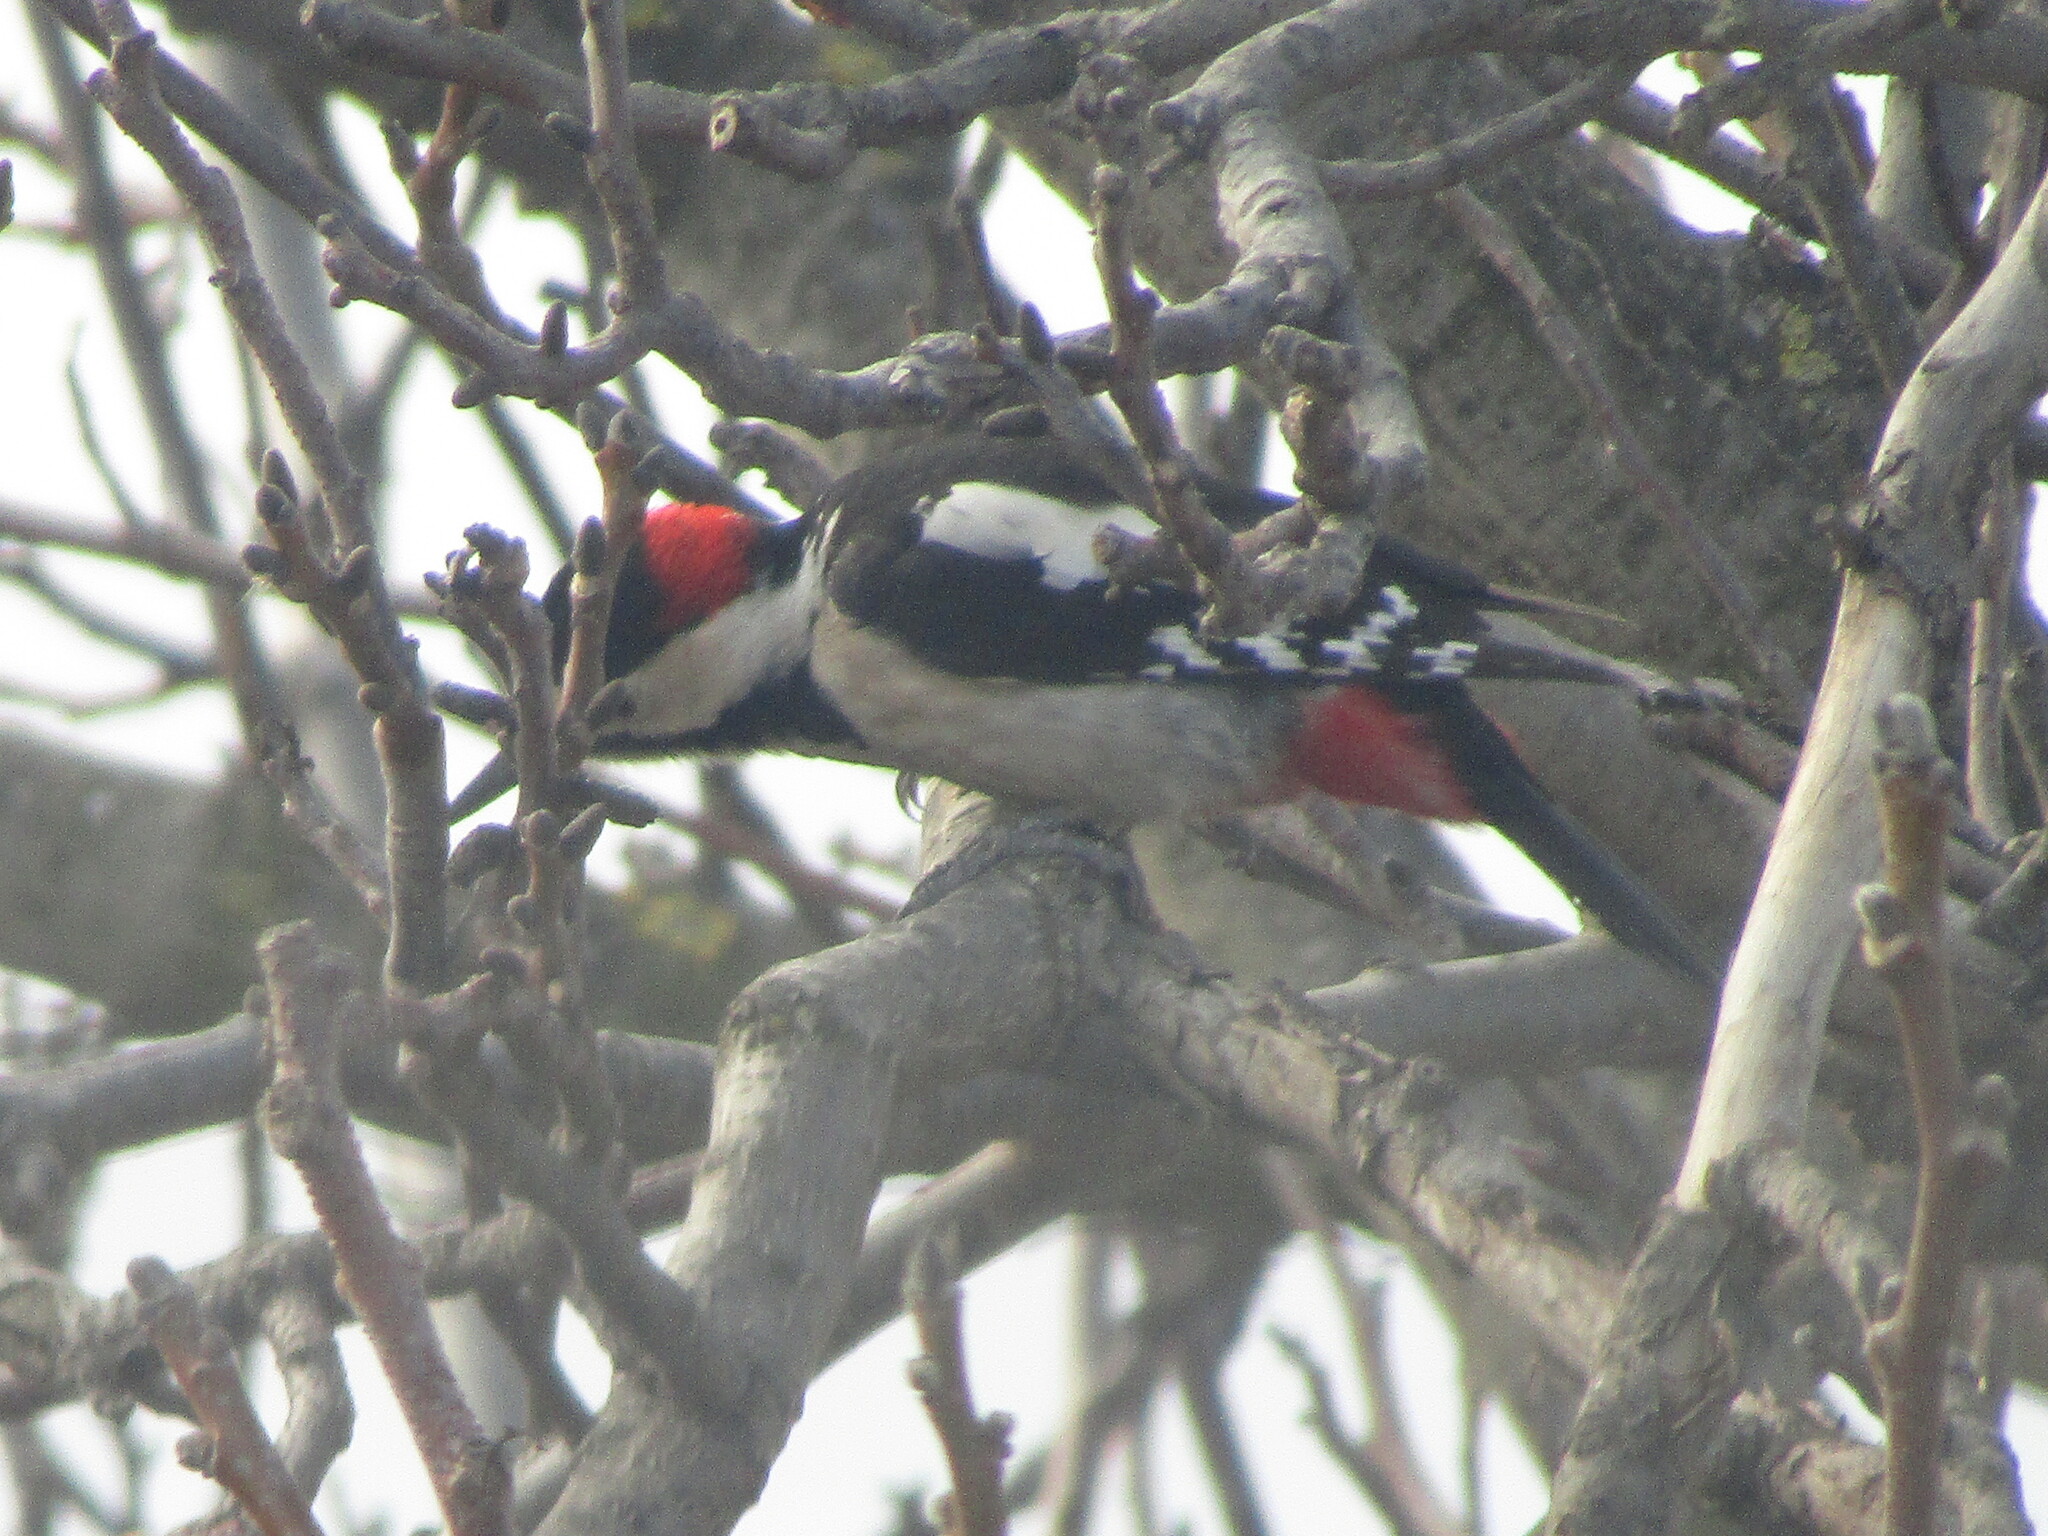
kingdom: Animalia
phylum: Chordata
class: Aves
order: Piciformes
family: Picidae
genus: Dendrocopos
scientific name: Dendrocopos syriacus
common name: Syrian woodpecker
